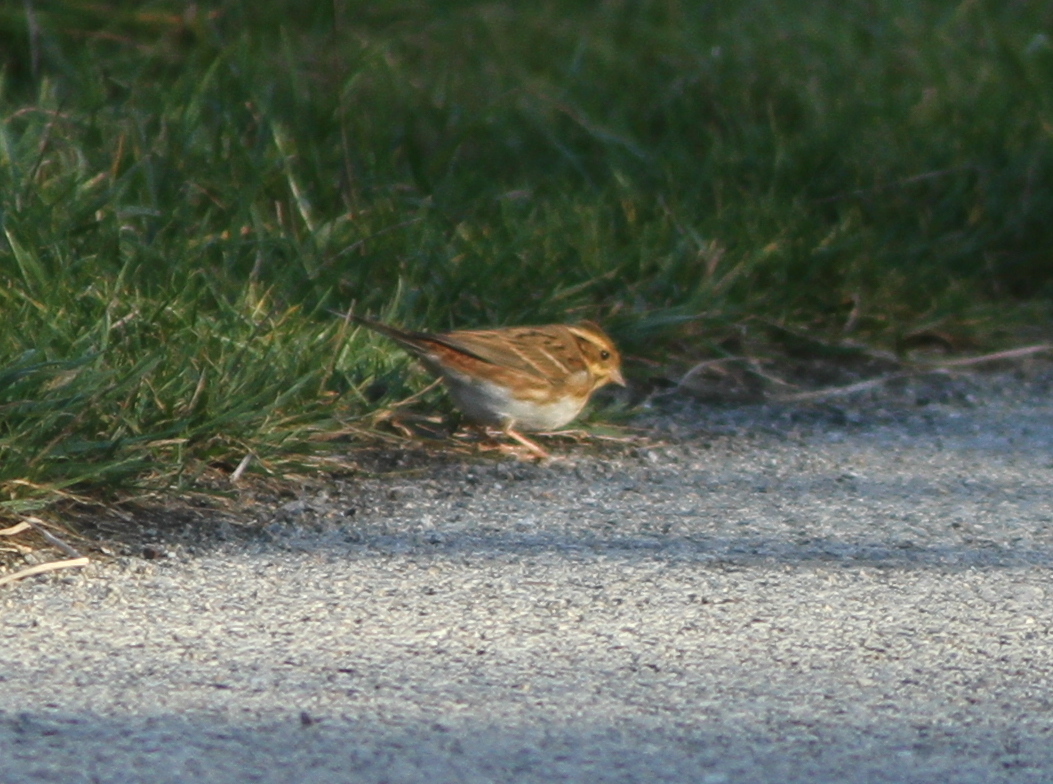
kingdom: Animalia
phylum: Chordata
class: Aves
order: Passeriformes
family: Emberizidae
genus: Emberiza
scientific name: Emberiza rustica
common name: Rustic bunting
